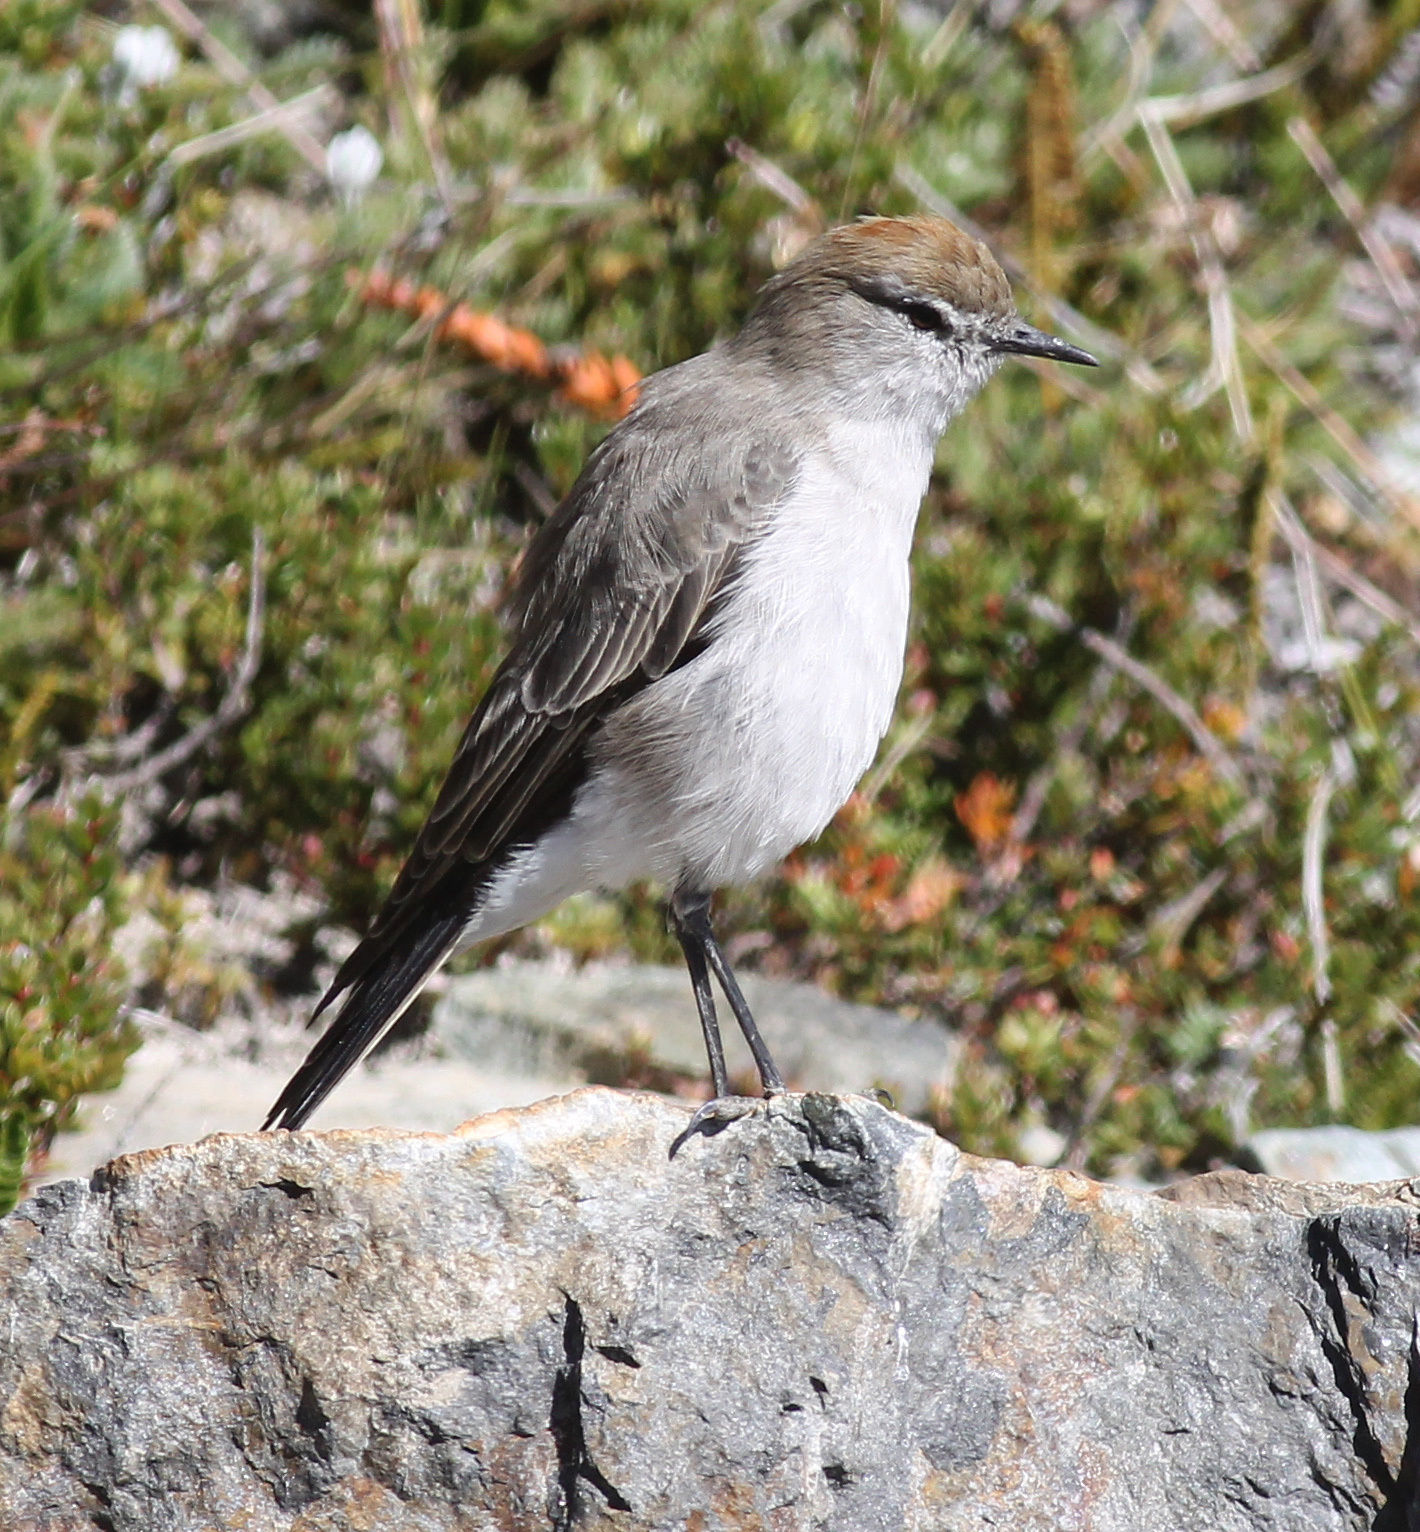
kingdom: Animalia
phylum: Chordata
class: Aves
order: Passeriformes
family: Tyrannidae
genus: Muscisaxicola
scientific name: Muscisaxicola albilora
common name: White-browed ground tyrant
